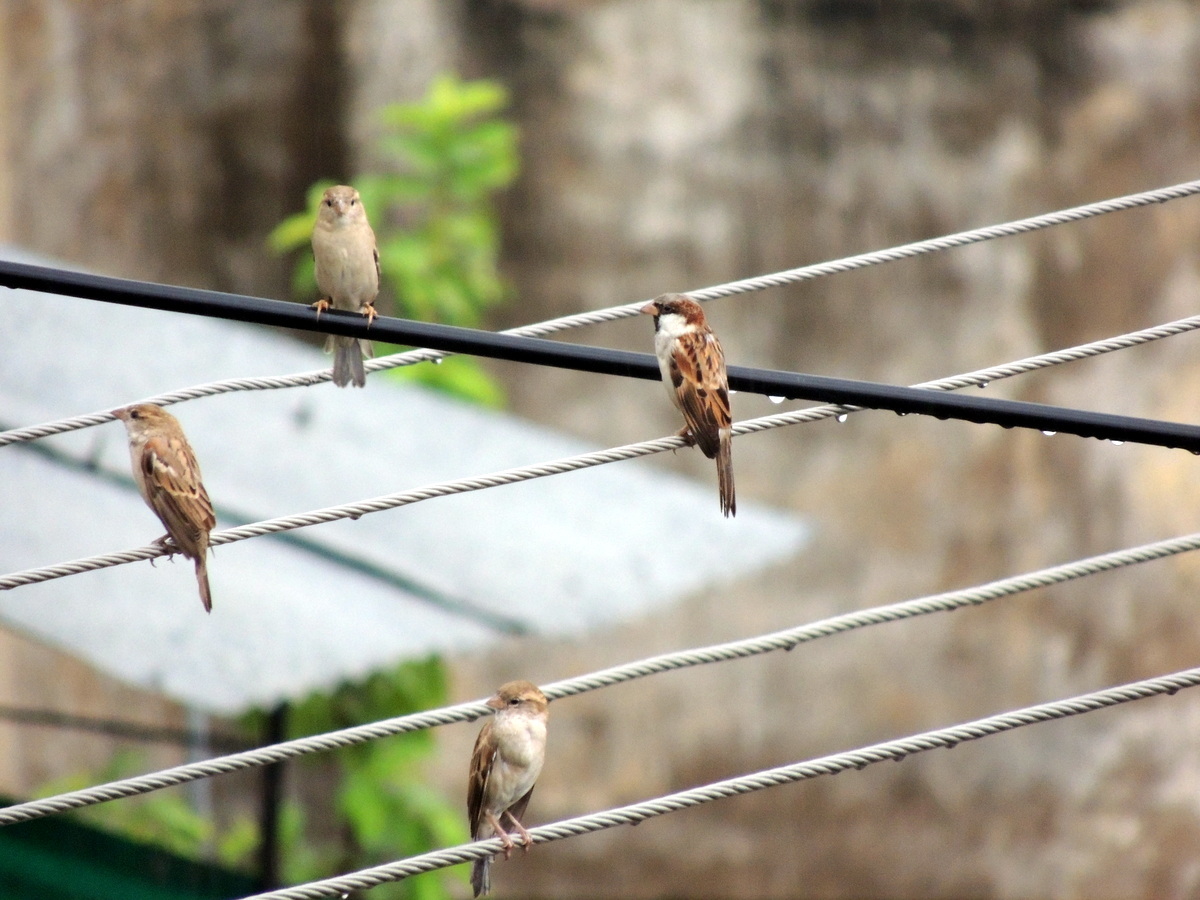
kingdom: Animalia
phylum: Chordata
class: Aves
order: Passeriformes
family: Passeridae
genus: Passer
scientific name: Passer domesticus
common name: House sparrow
